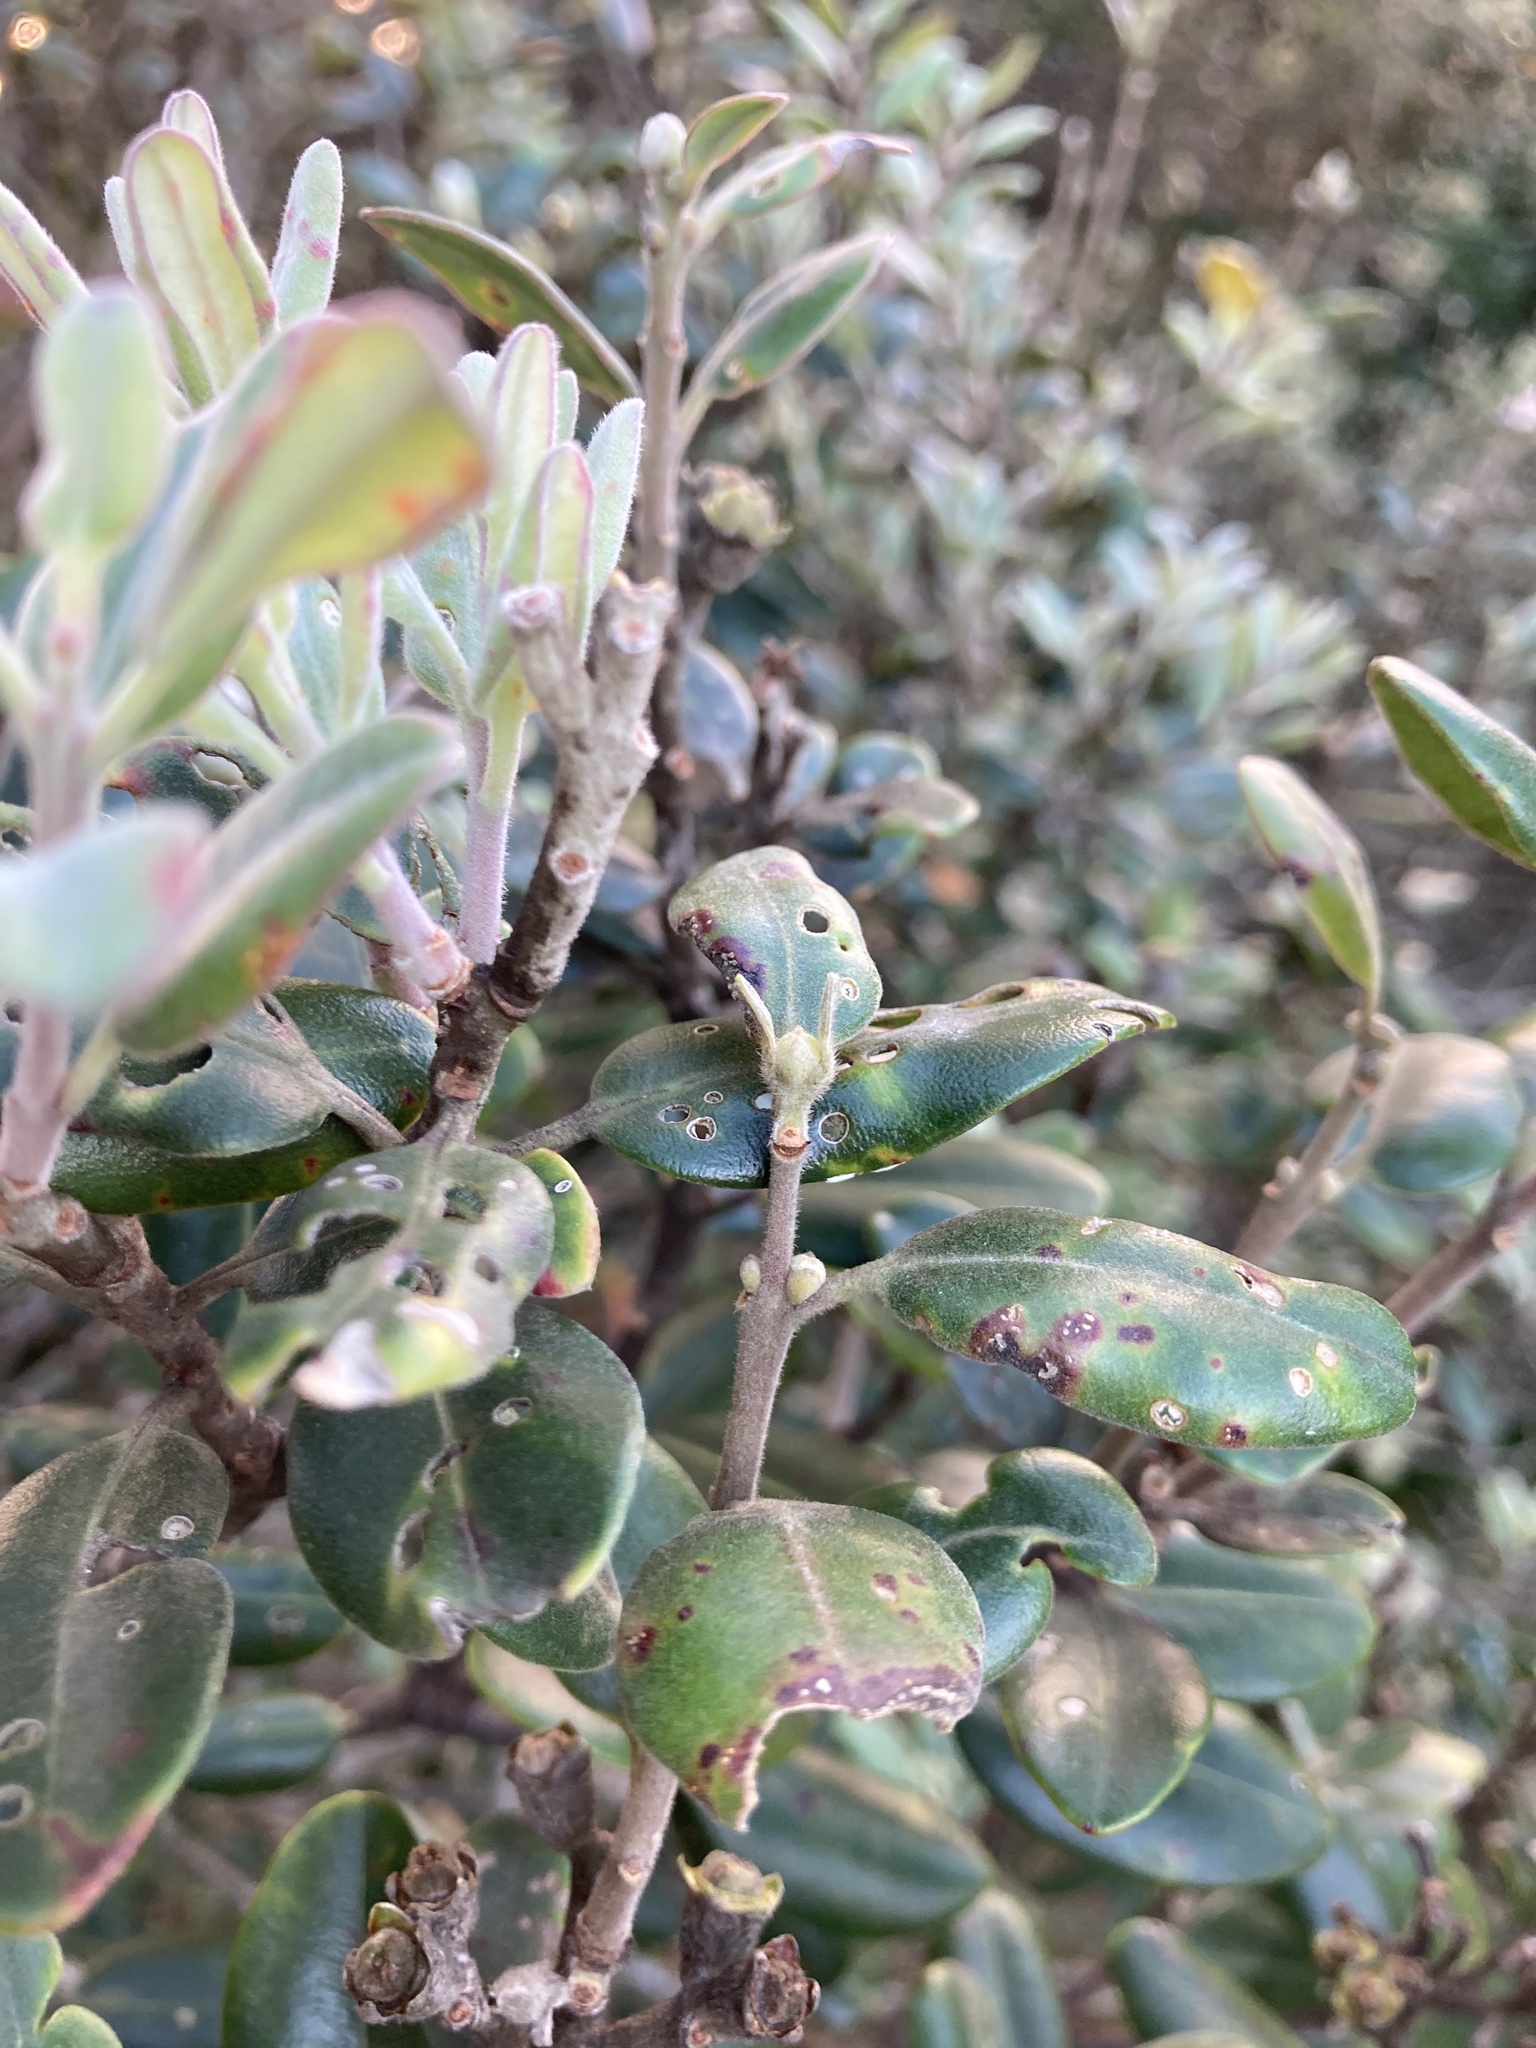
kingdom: Fungi
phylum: Basidiomycota
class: Pucciniomycetes
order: Pucciniales
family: Sphaerophragmiaceae
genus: Austropuccinia
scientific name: Austropuccinia psidii
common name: Myrtle rust
